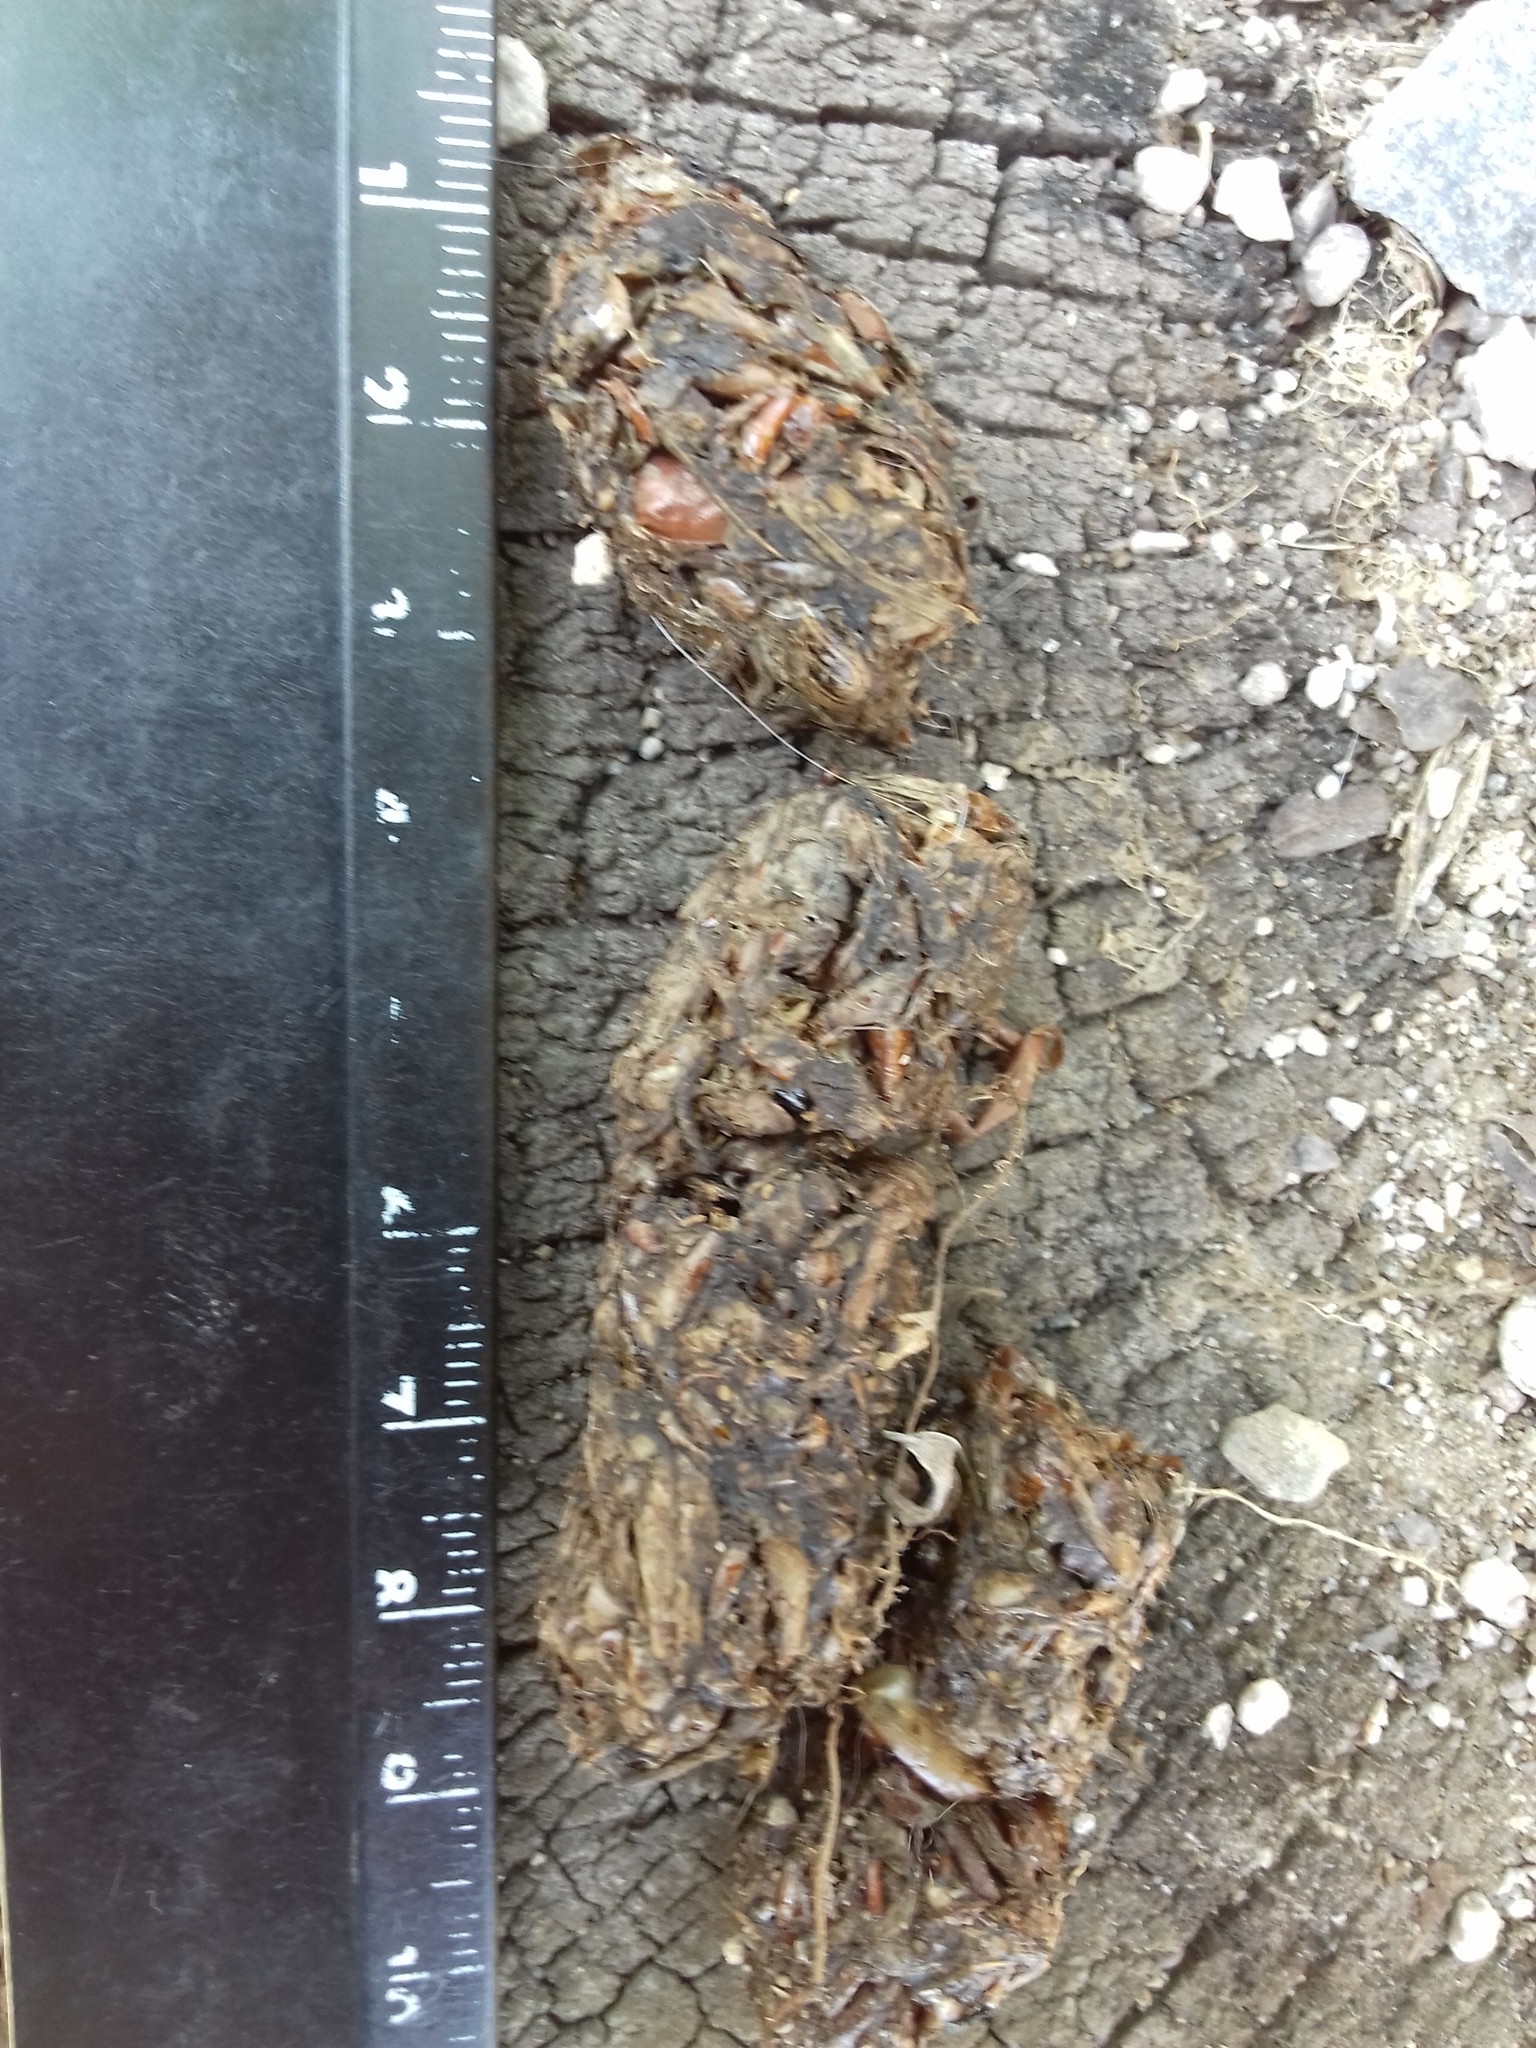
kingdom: Animalia
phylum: Chordata
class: Mammalia
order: Carnivora
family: Canidae
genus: Urocyon
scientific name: Urocyon cinereoargenteus
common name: Gray fox
